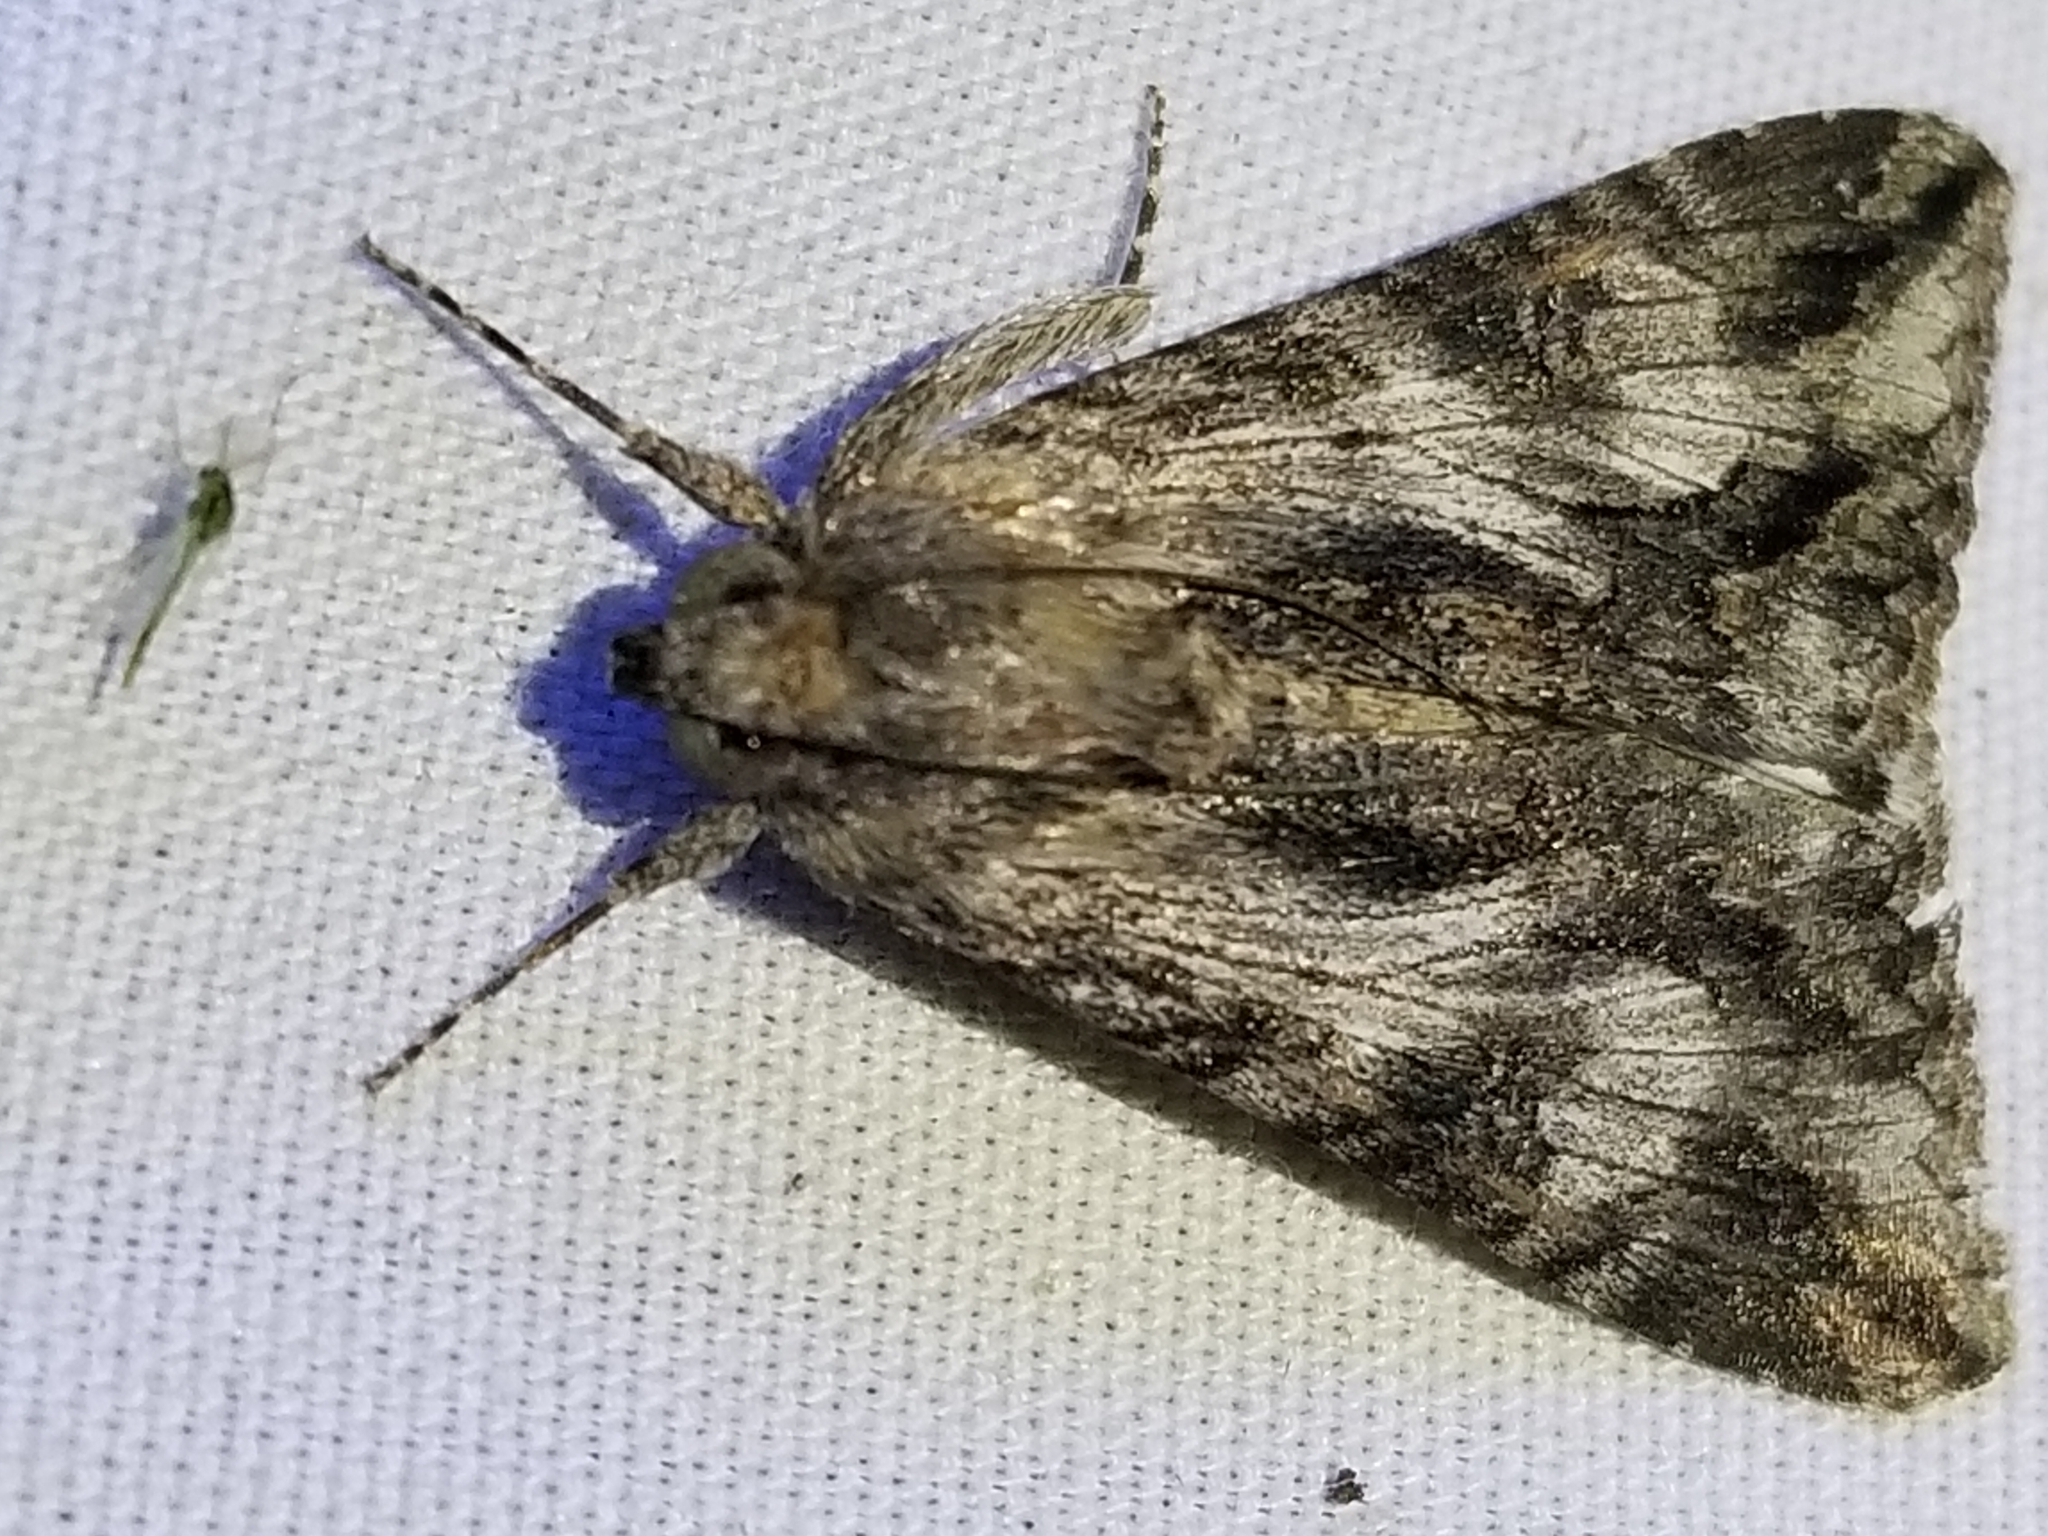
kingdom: Animalia
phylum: Arthropoda
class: Insecta
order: Lepidoptera
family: Erebidae
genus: Melipotis
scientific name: Melipotis jucunda
